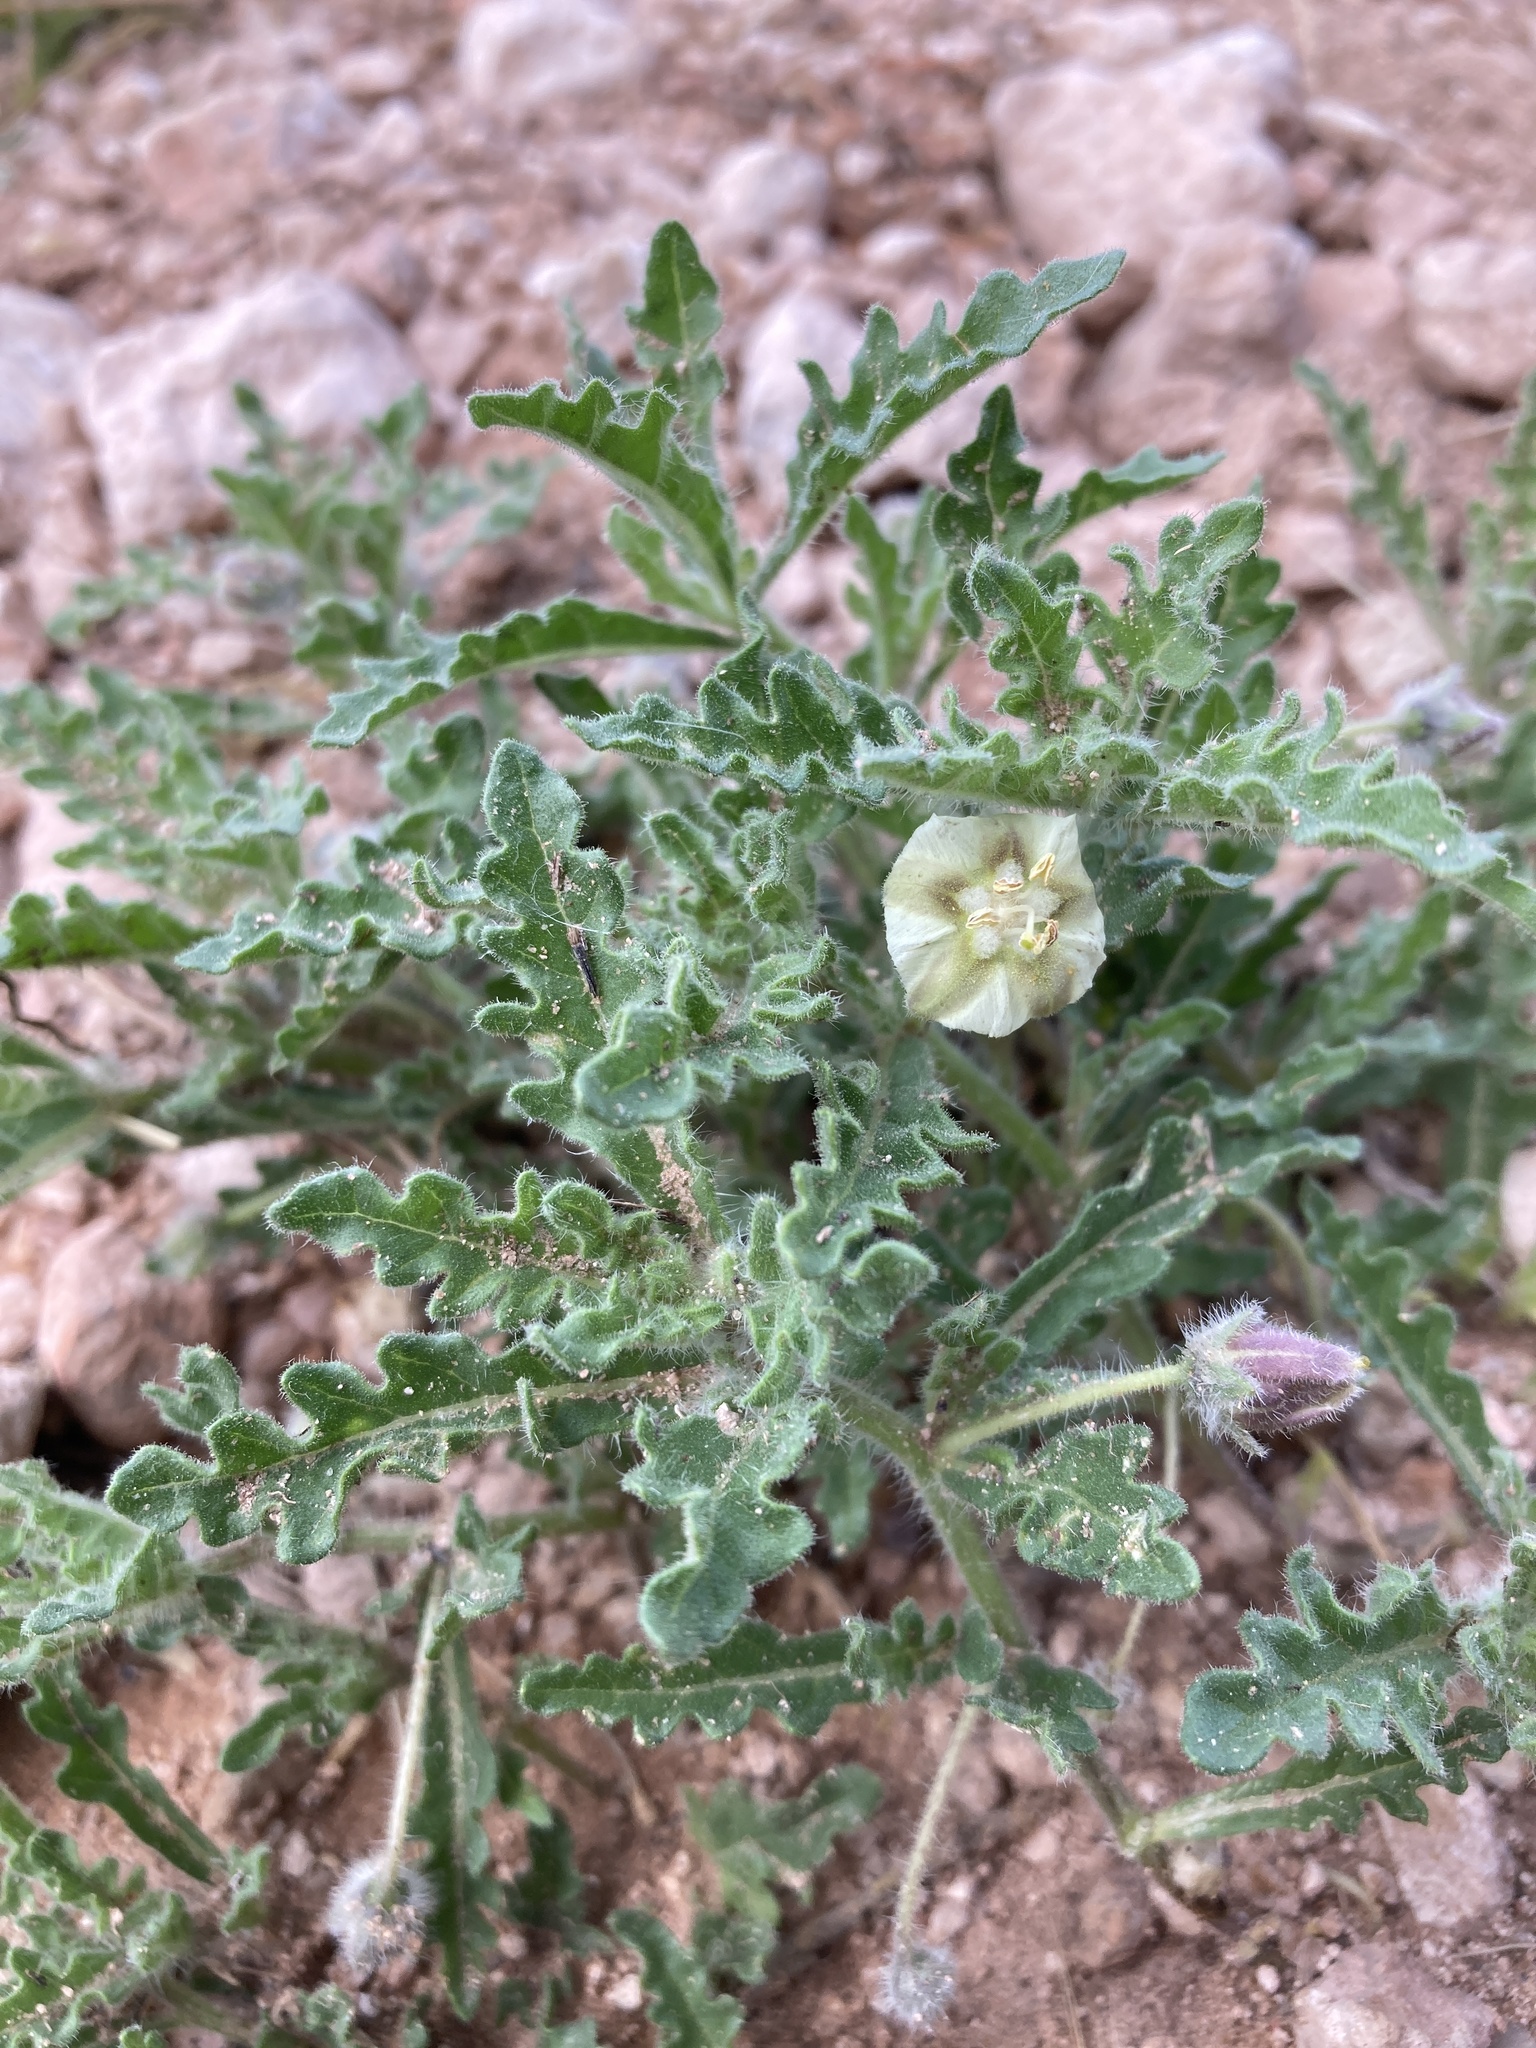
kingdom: Plantae
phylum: Tracheophyta
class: Magnoliopsida
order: Solanales
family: Solanaceae
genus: Chamaesaracha
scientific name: Chamaesaracha coniodes
